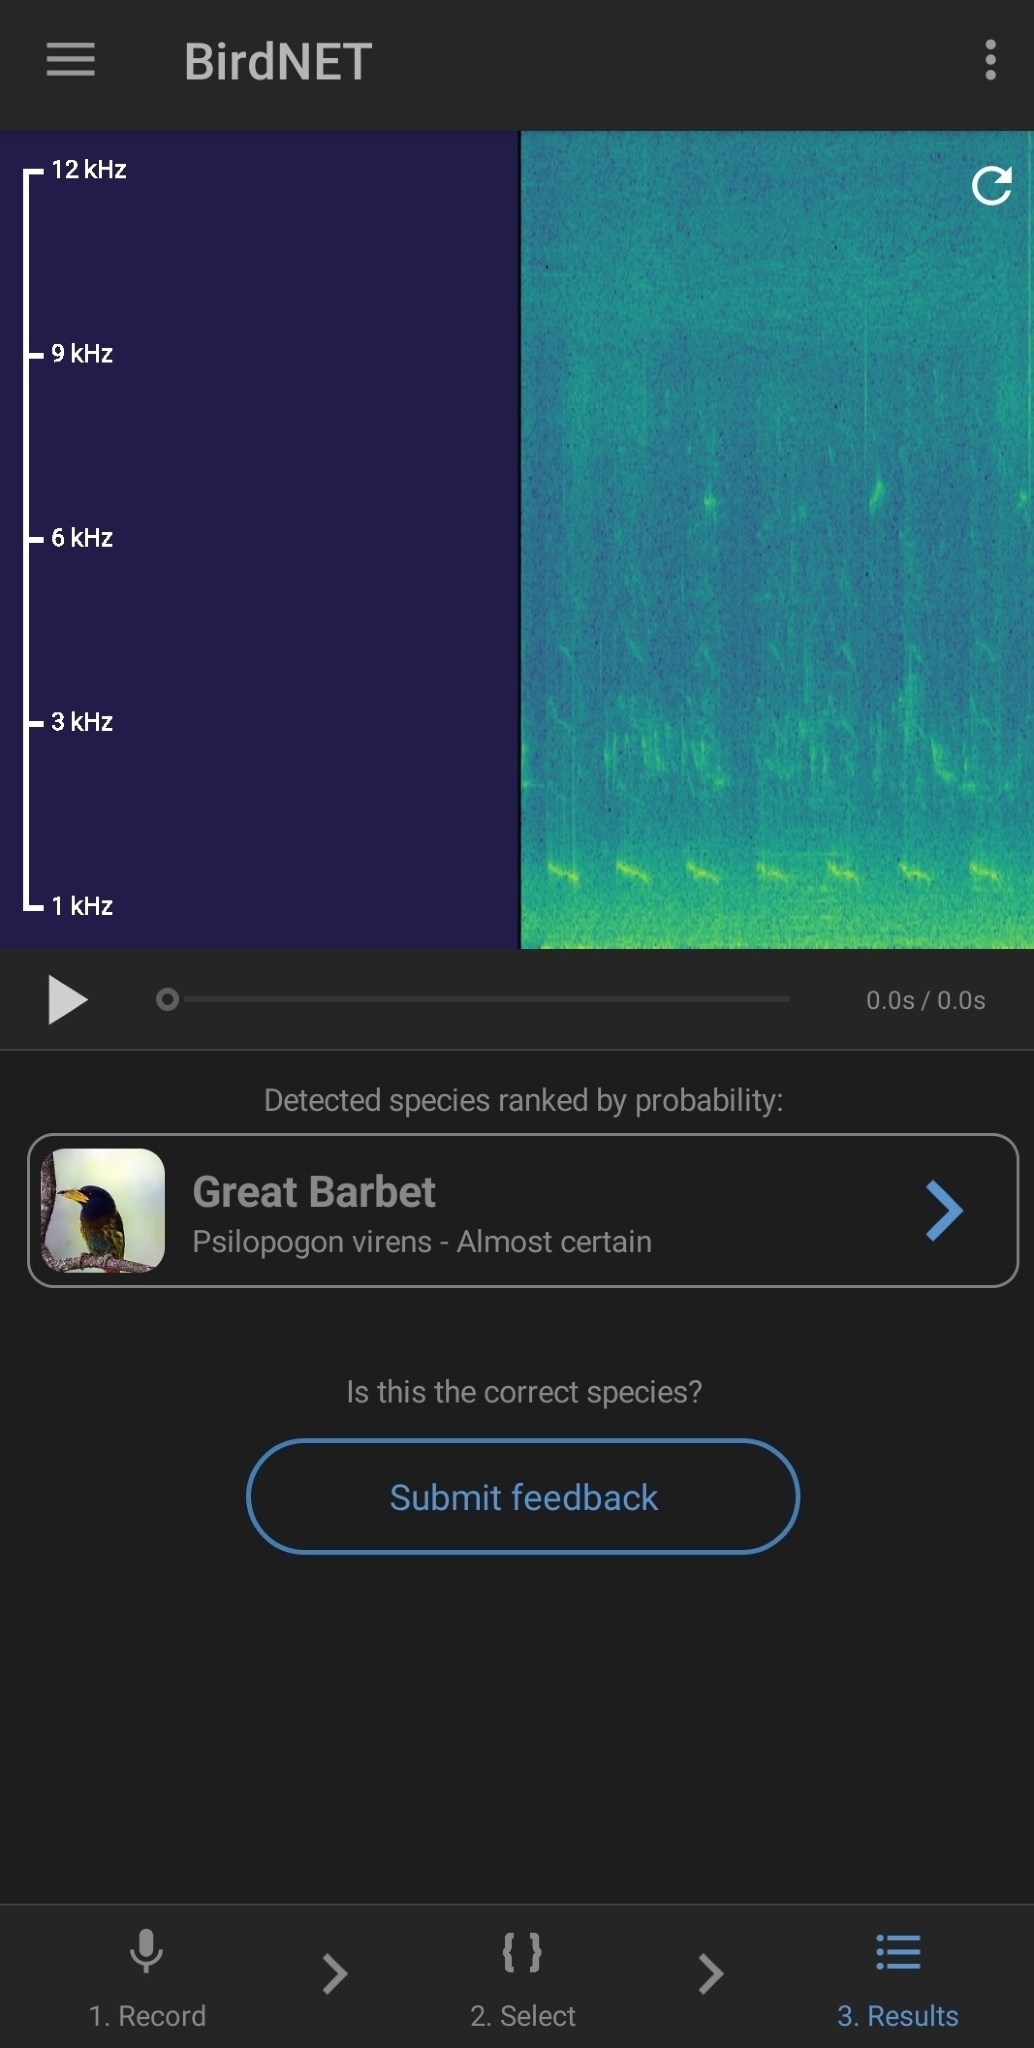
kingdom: Animalia
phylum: Chordata
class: Aves
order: Piciformes
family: Megalaimidae
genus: Psilopogon
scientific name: Psilopogon virens
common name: Great barbet
